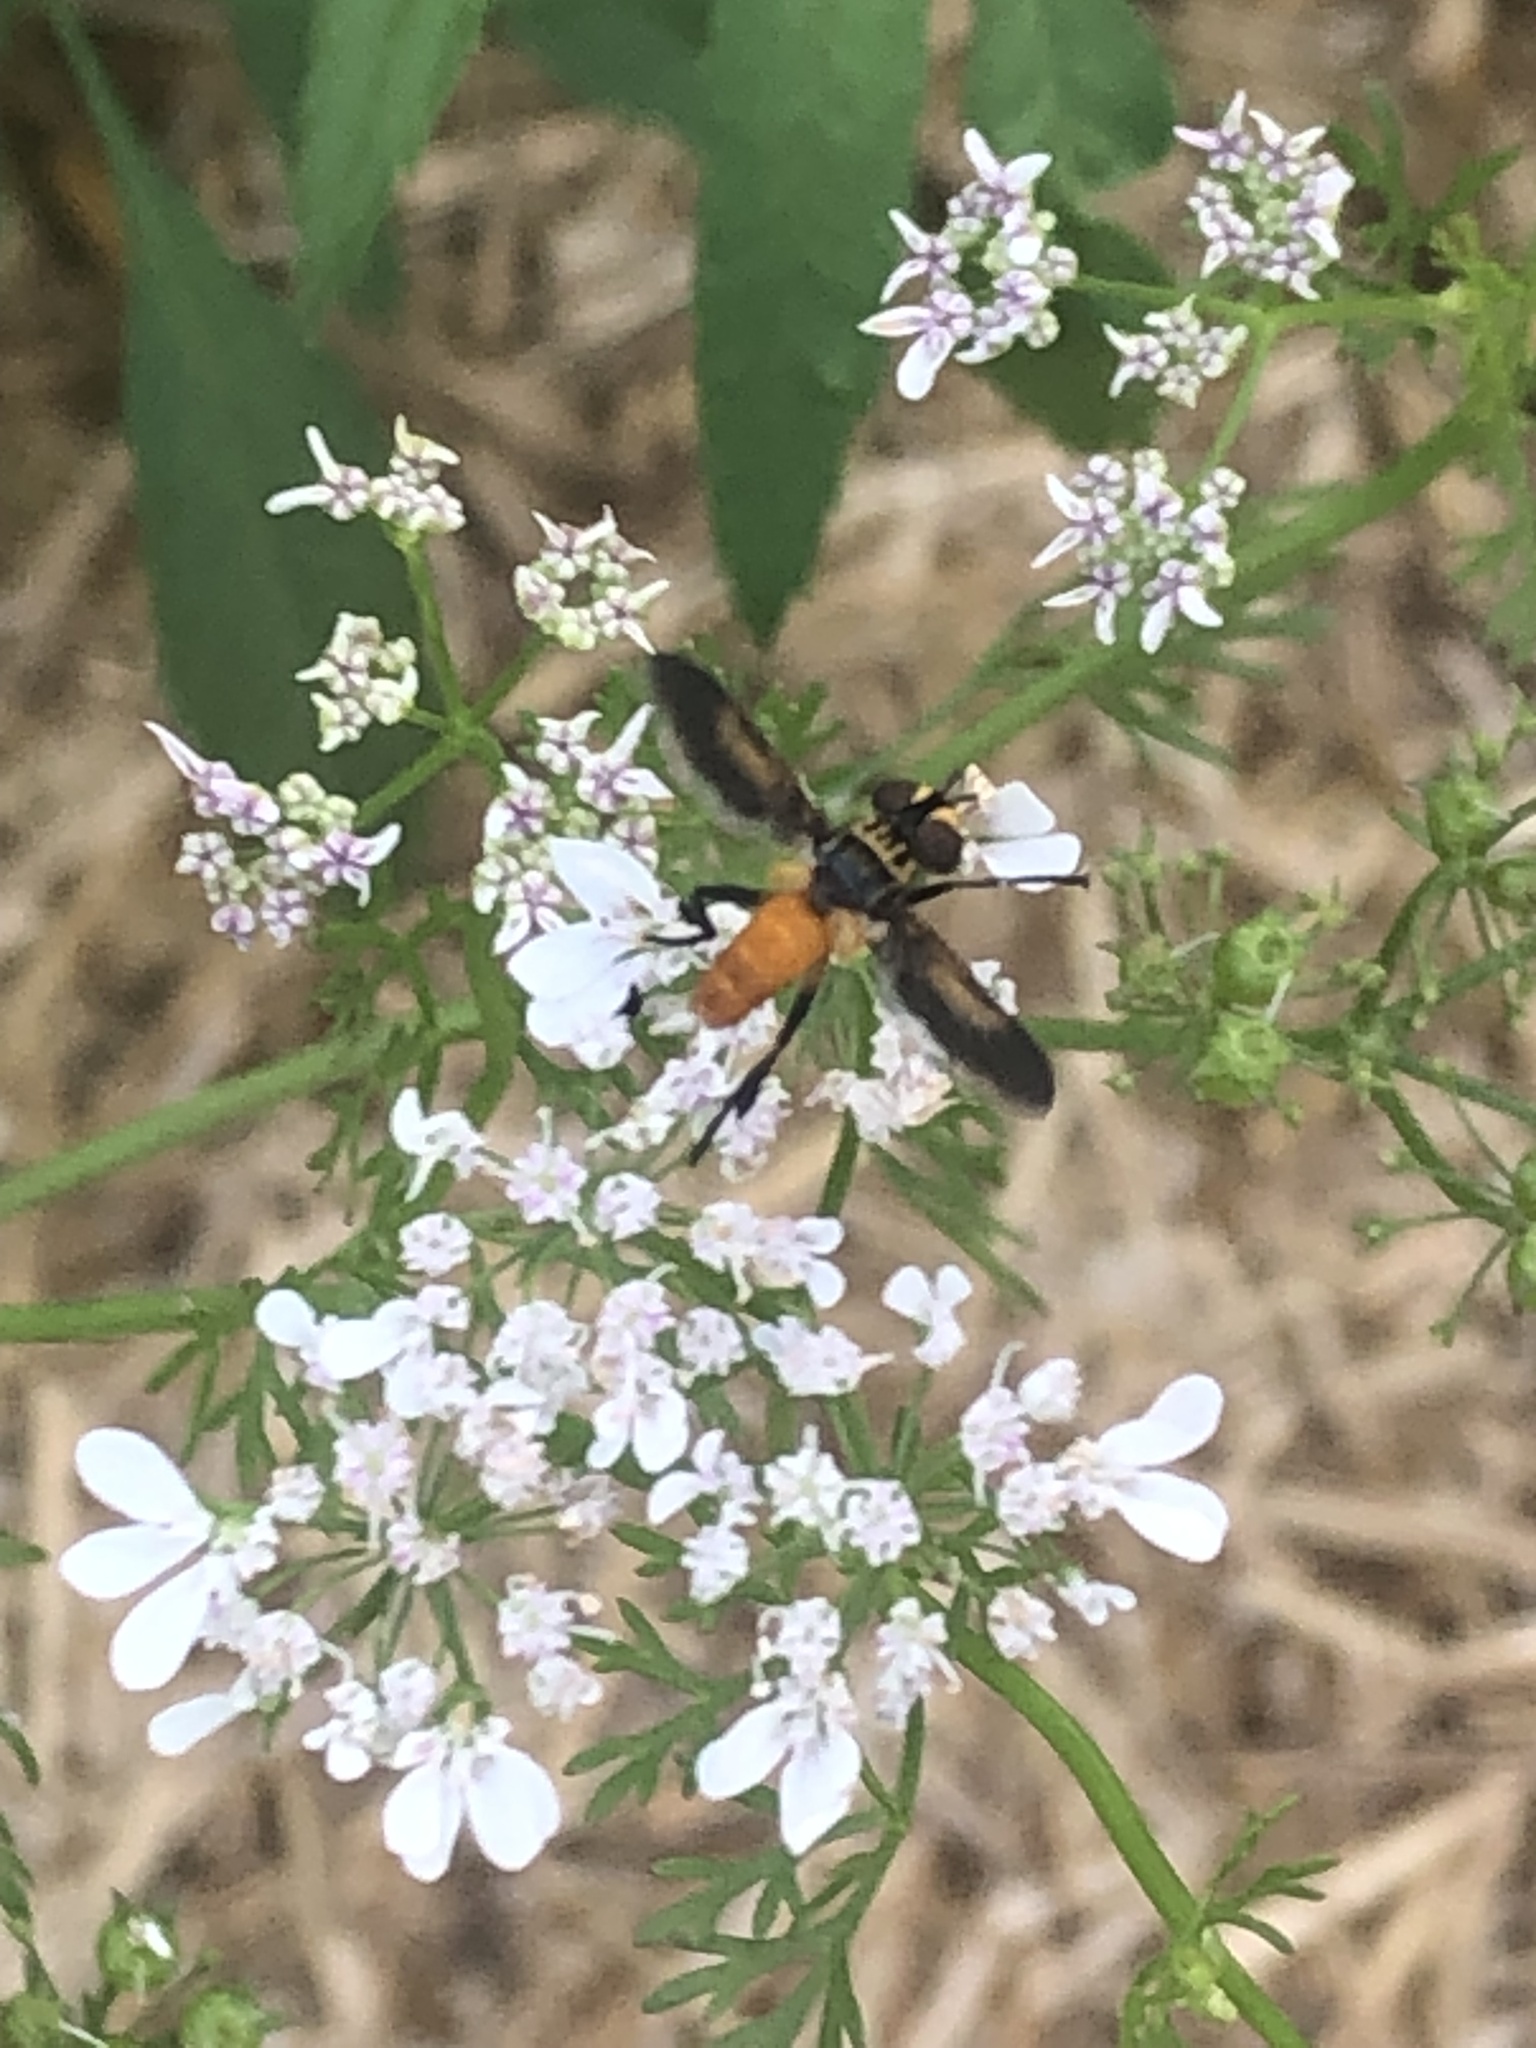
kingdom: Animalia
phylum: Arthropoda
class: Insecta
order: Diptera
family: Tachinidae
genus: Trichopoda
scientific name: Trichopoda pennipes
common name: Tachinid fly
